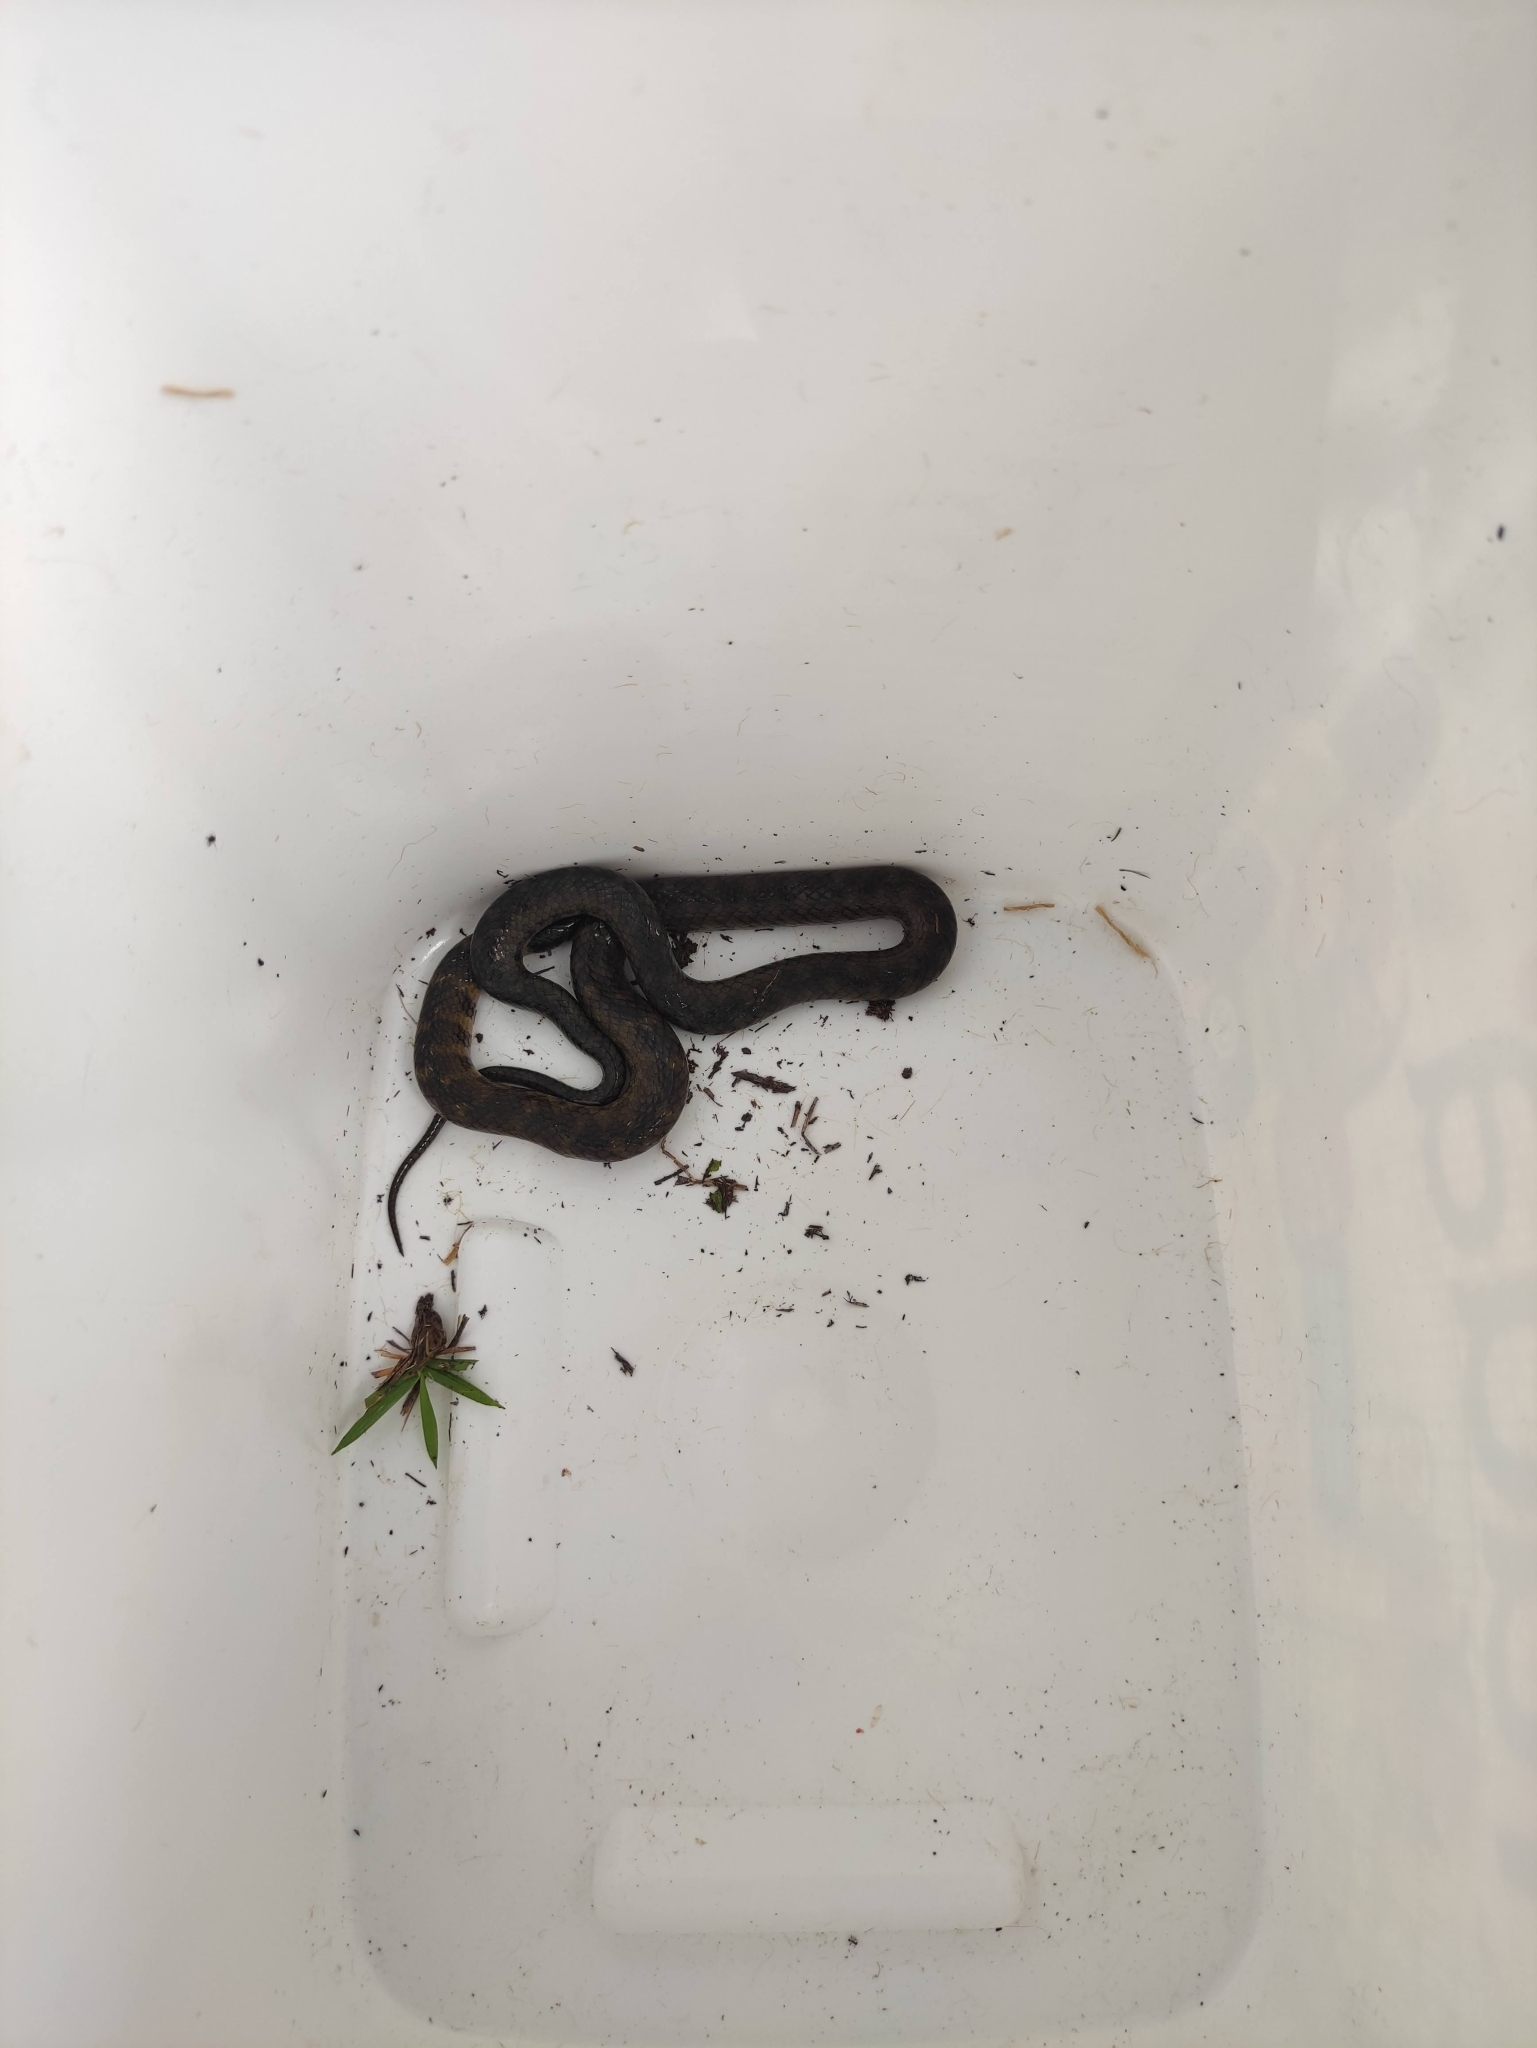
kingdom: Animalia
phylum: Chordata
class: Squamata
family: Colubridae
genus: Helicops
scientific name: Helicops angulatus
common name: Mountain keelback
